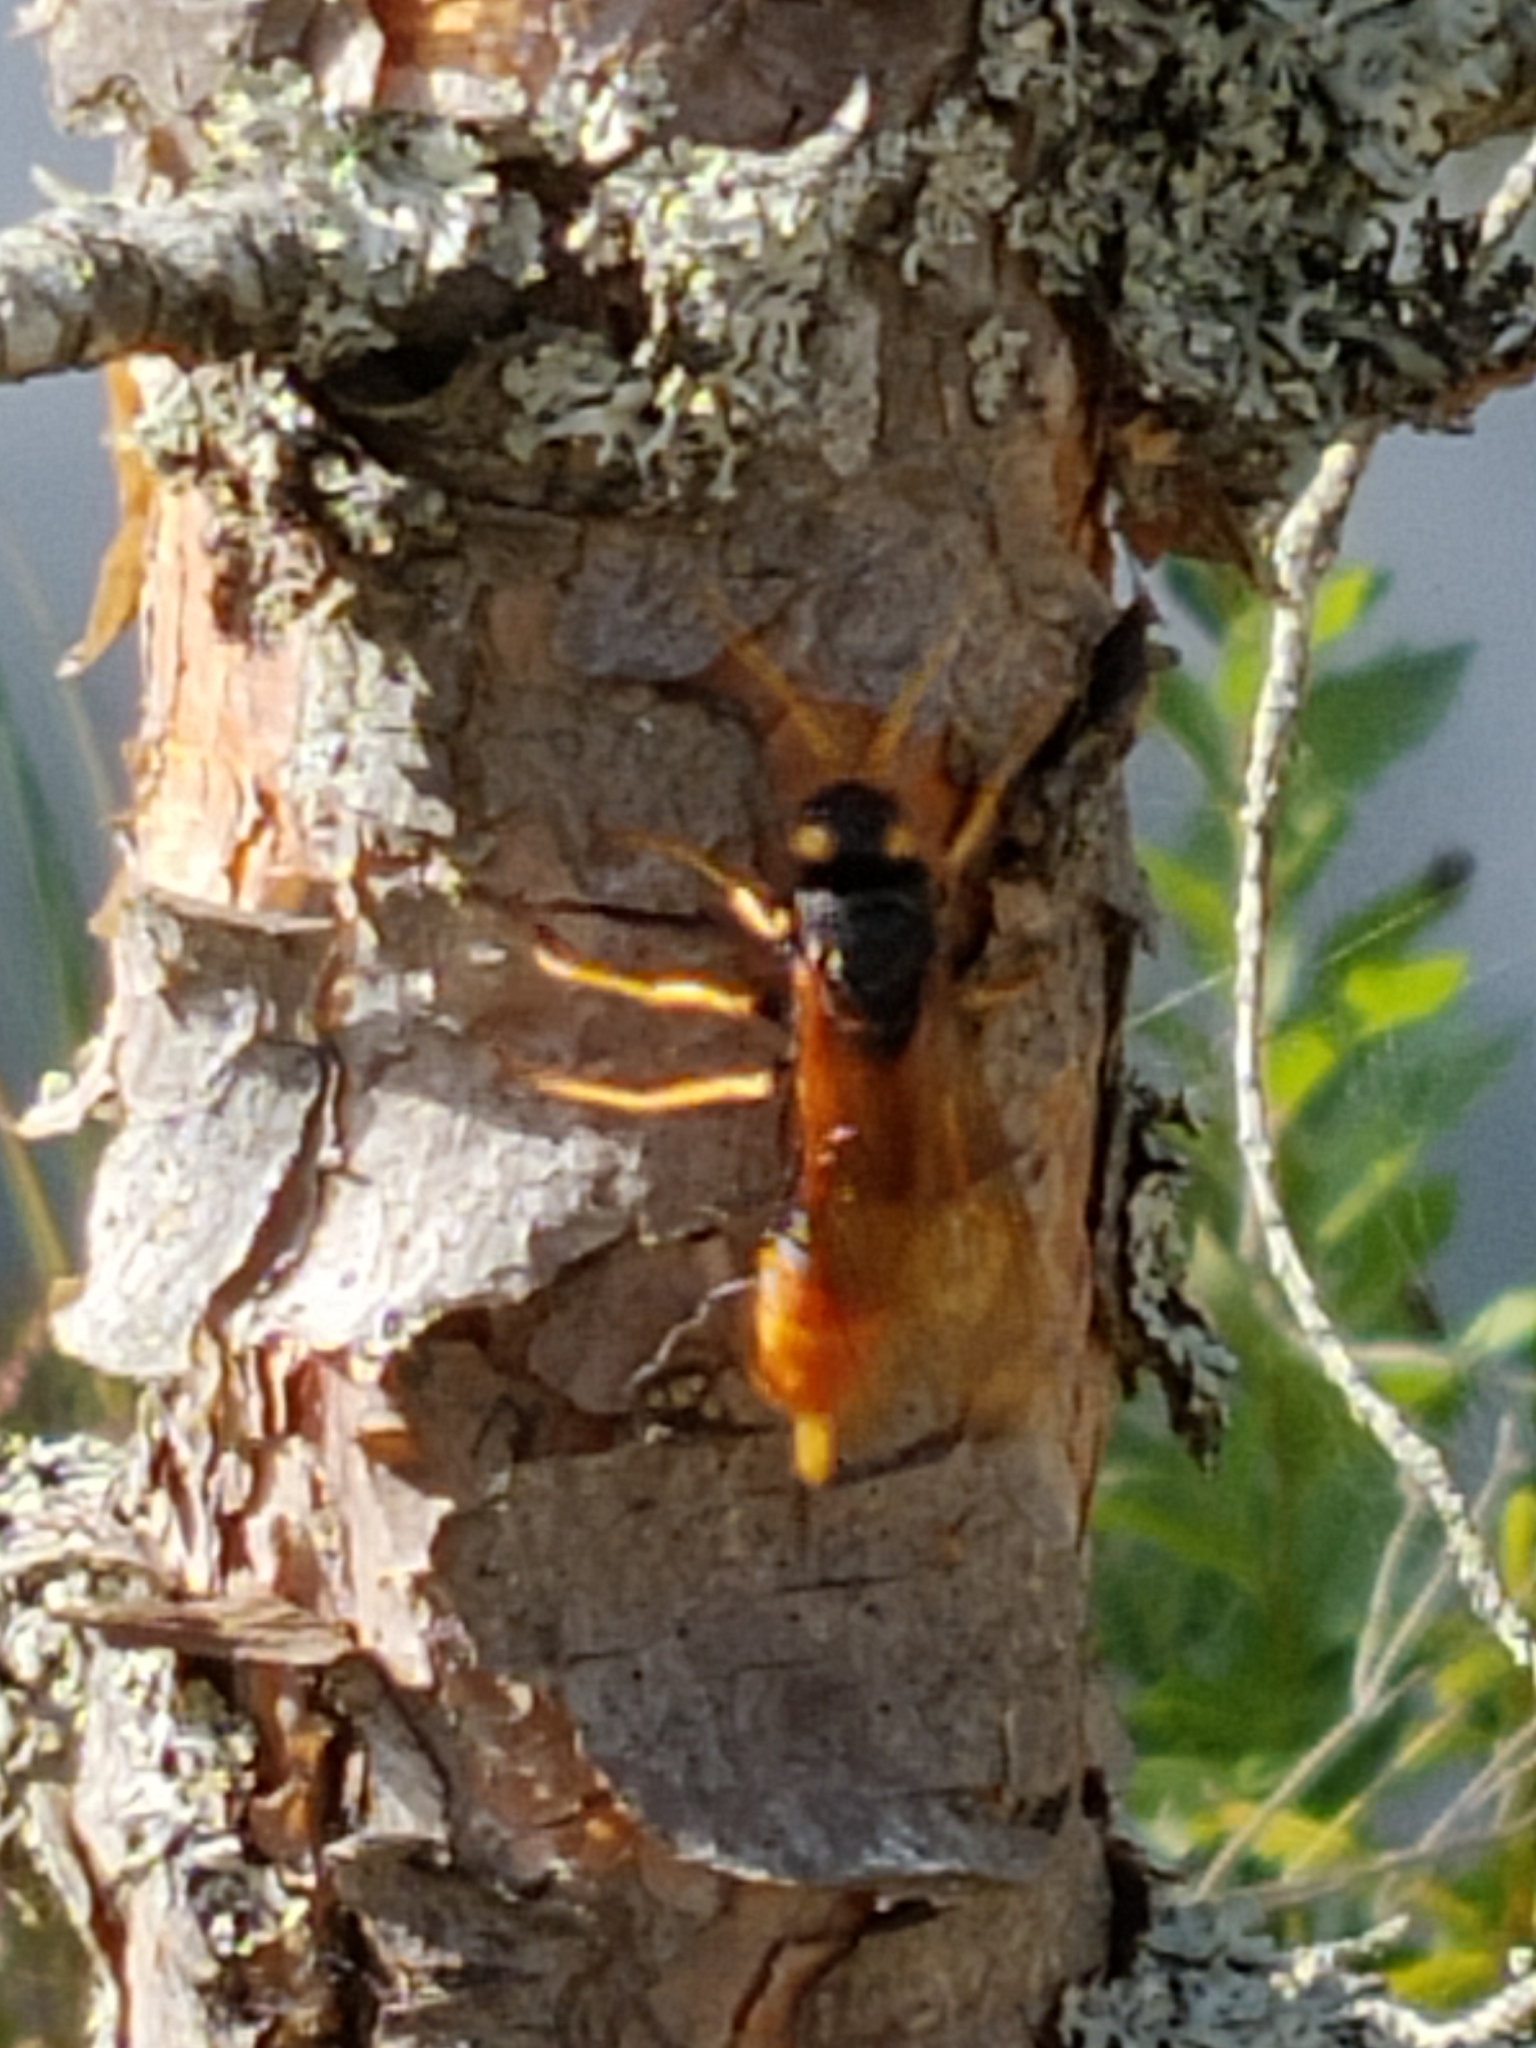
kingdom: Animalia
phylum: Arthropoda
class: Insecta
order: Hymenoptera
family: Siricidae
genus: Urocerus
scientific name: Urocerus gigas
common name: Giant woodwasp
